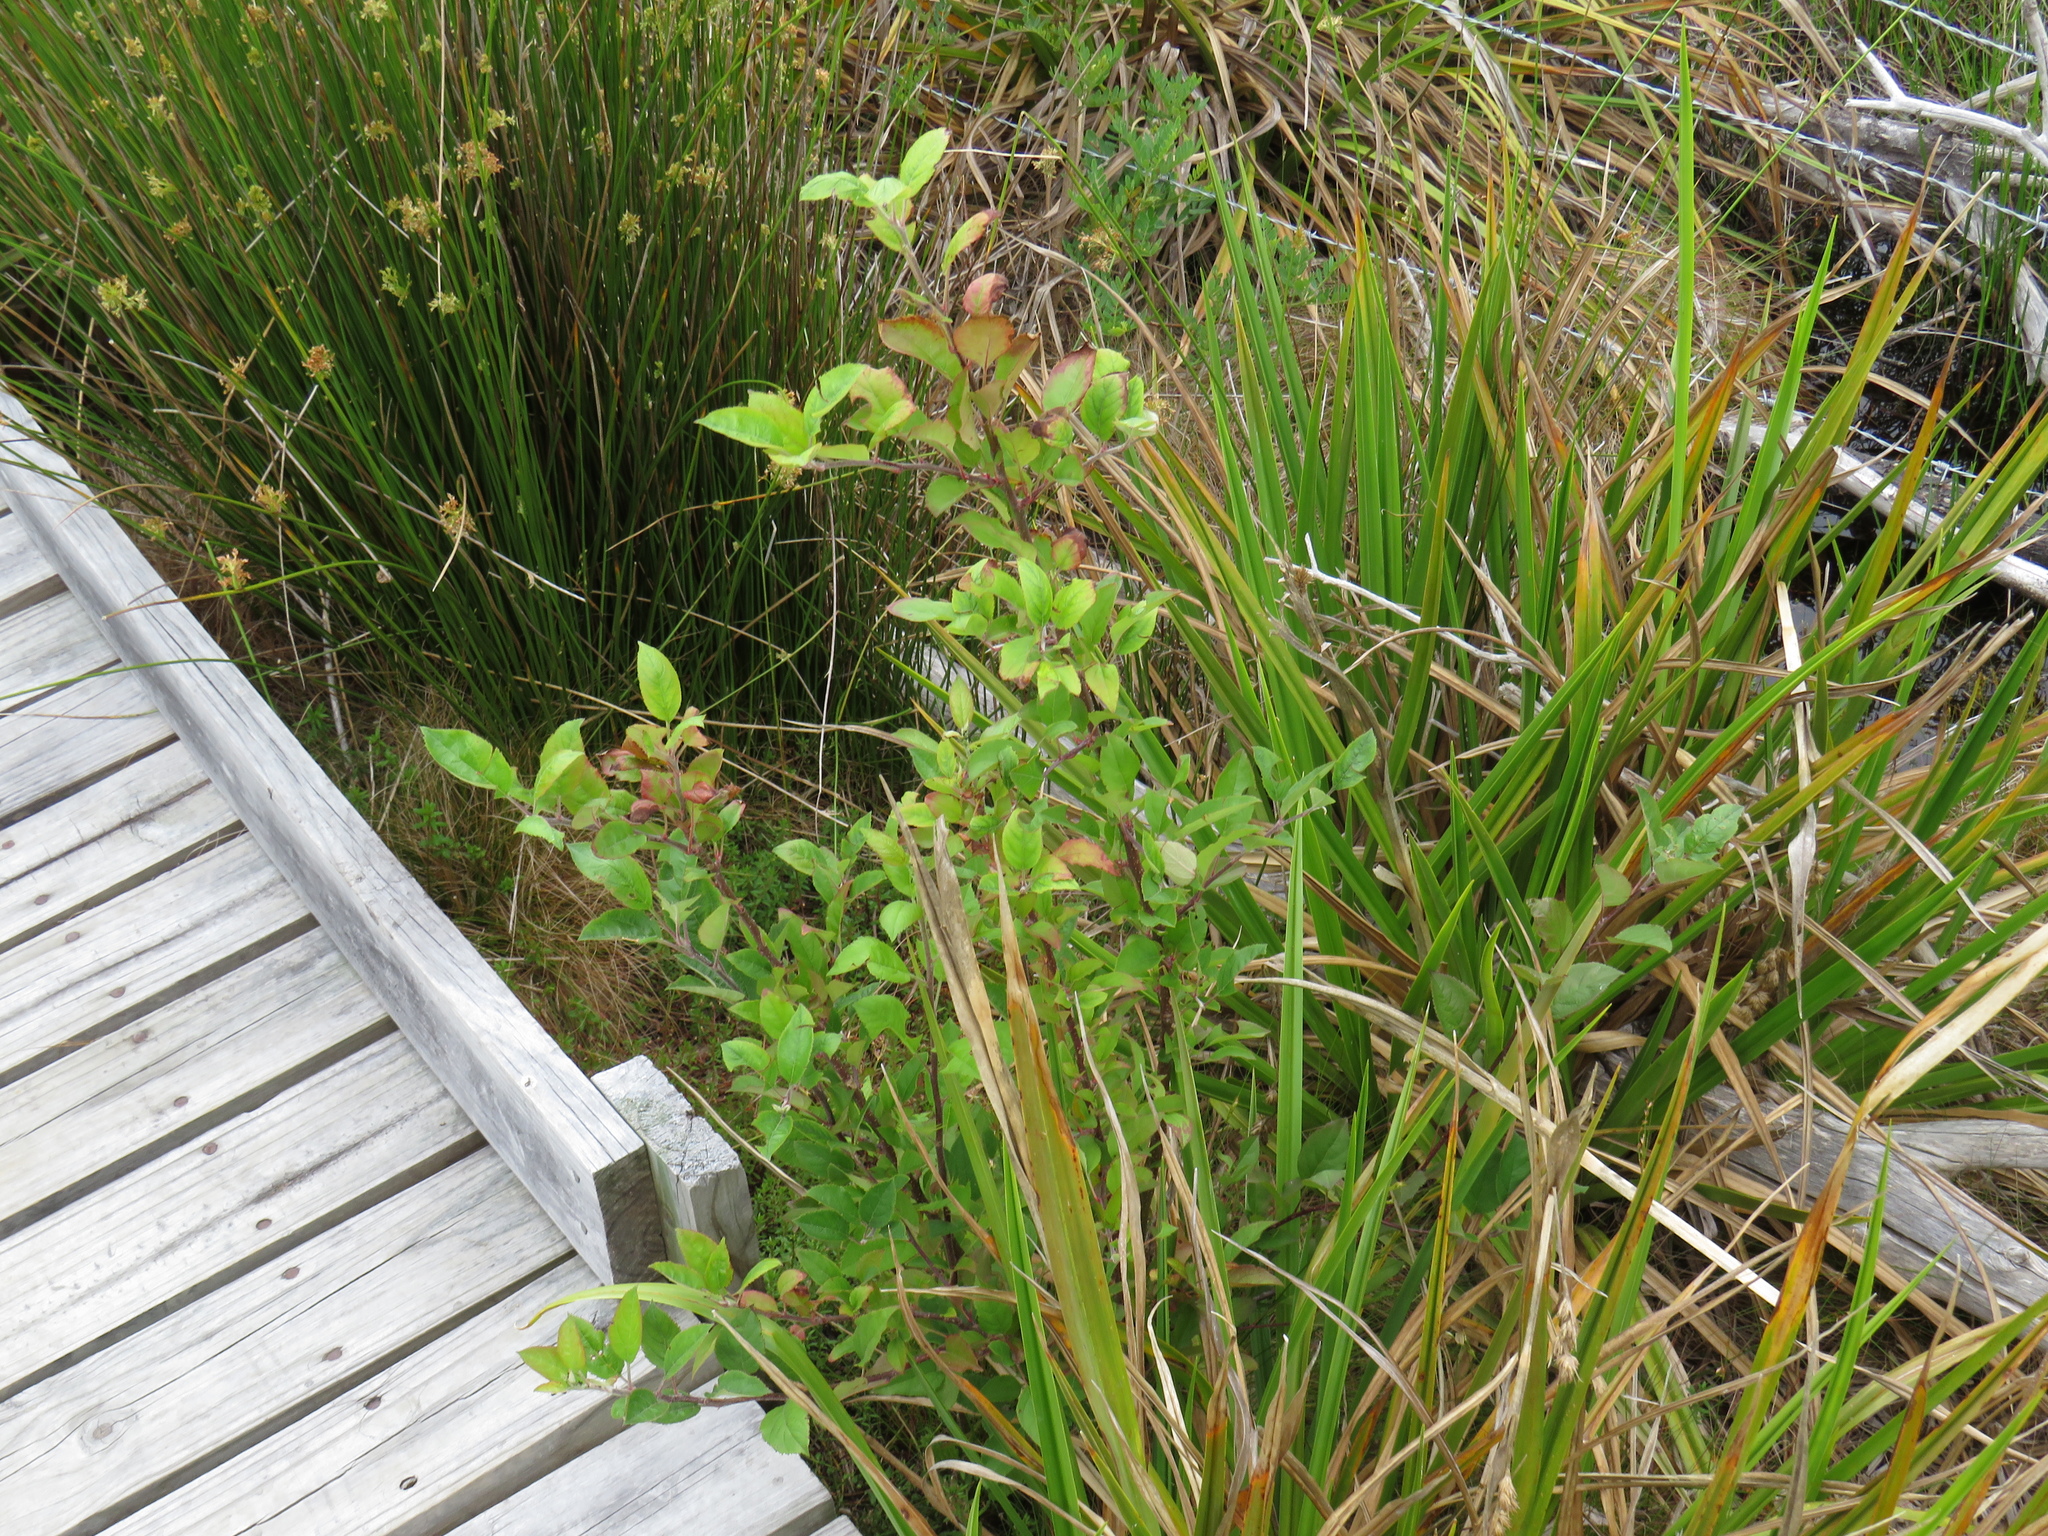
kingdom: Plantae
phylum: Tracheophyta
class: Magnoliopsida
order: Rosales
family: Rosaceae
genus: Malus
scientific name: Malus domestica
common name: Apple
